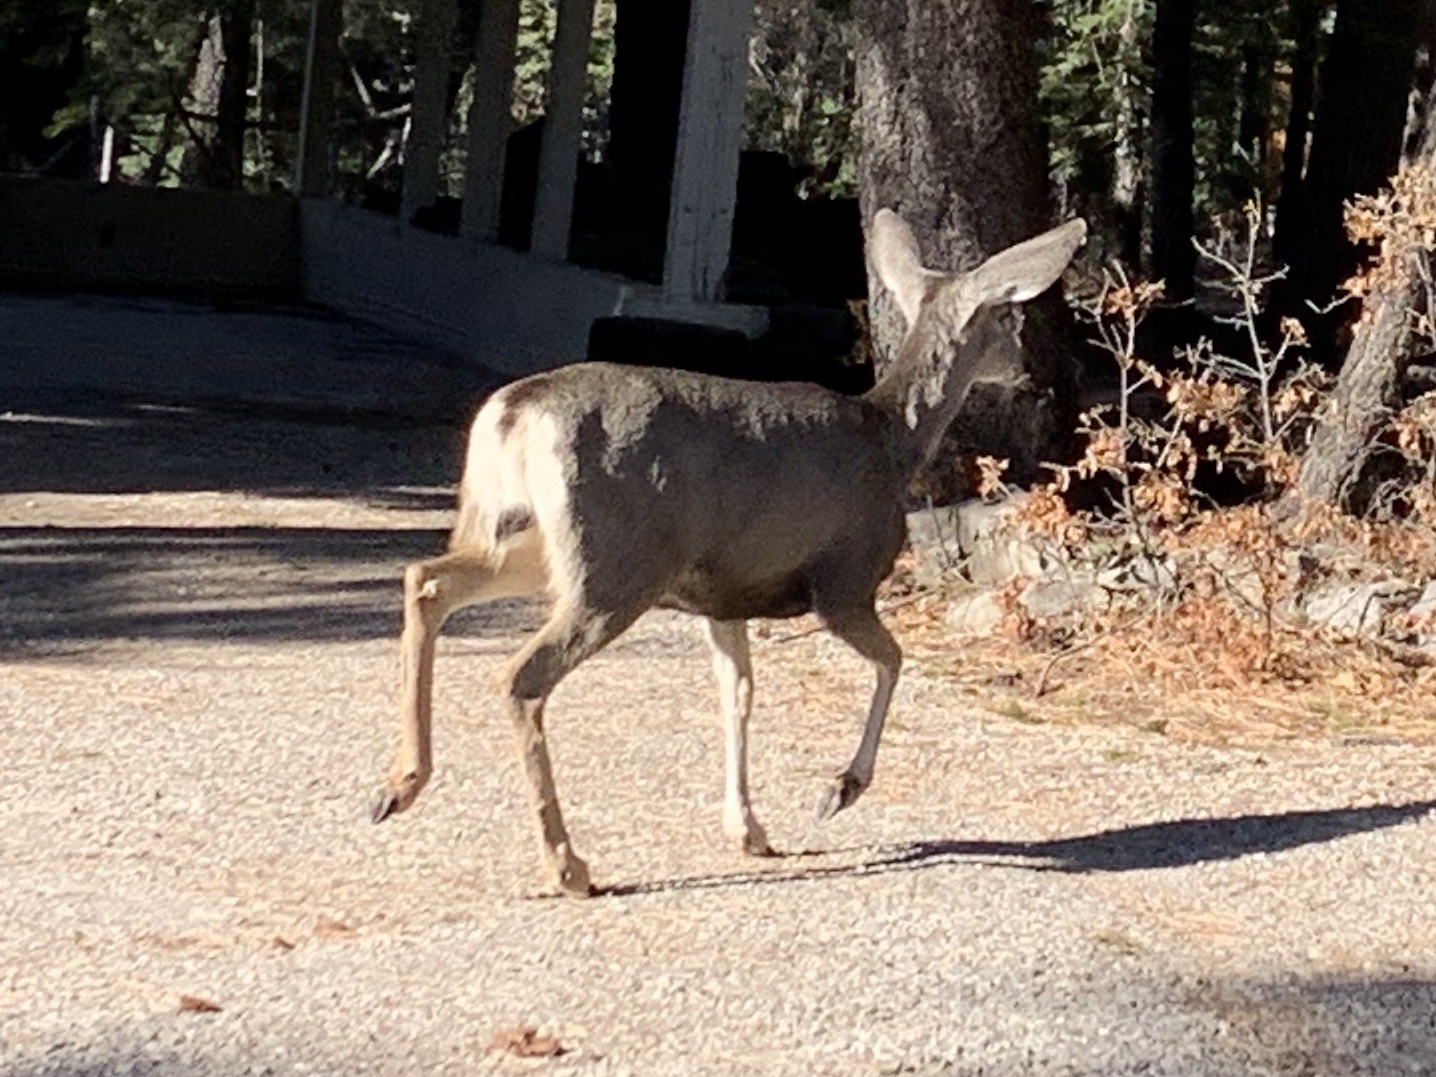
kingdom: Animalia
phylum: Chordata
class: Mammalia
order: Artiodactyla
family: Cervidae
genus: Odocoileus
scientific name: Odocoileus hemionus
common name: Mule deer
